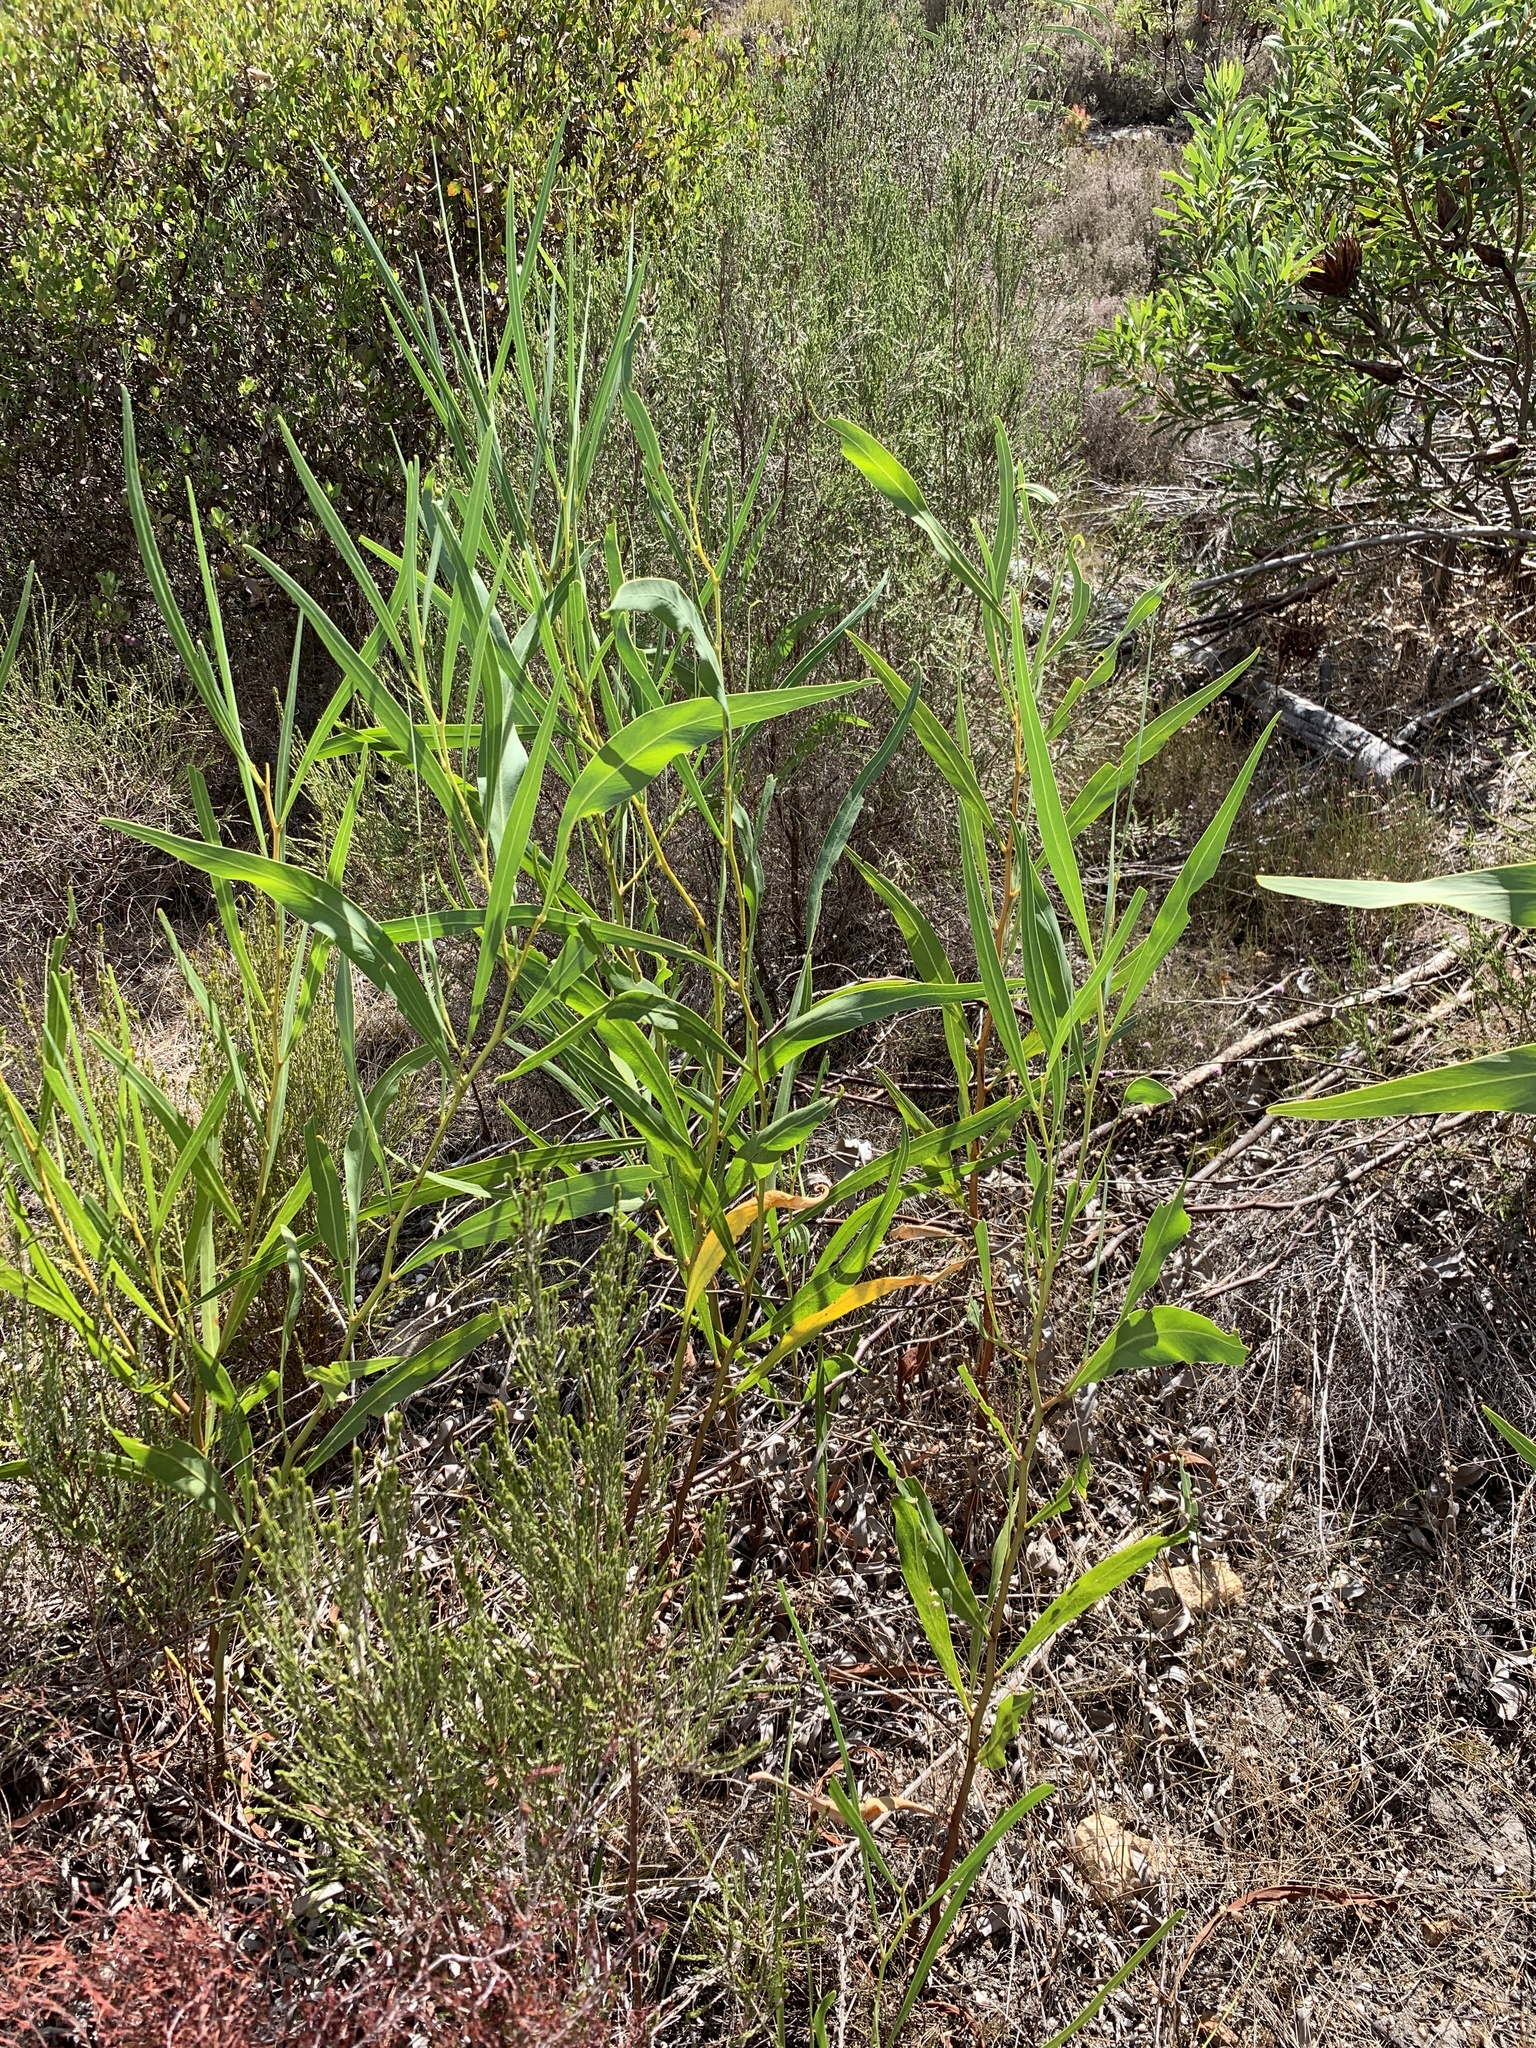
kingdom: Plantae
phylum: Tracheophyta
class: Magnoliopsida
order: Fabales
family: Fabaceae
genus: Acacia
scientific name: Acacia saligna
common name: Orange wattle
